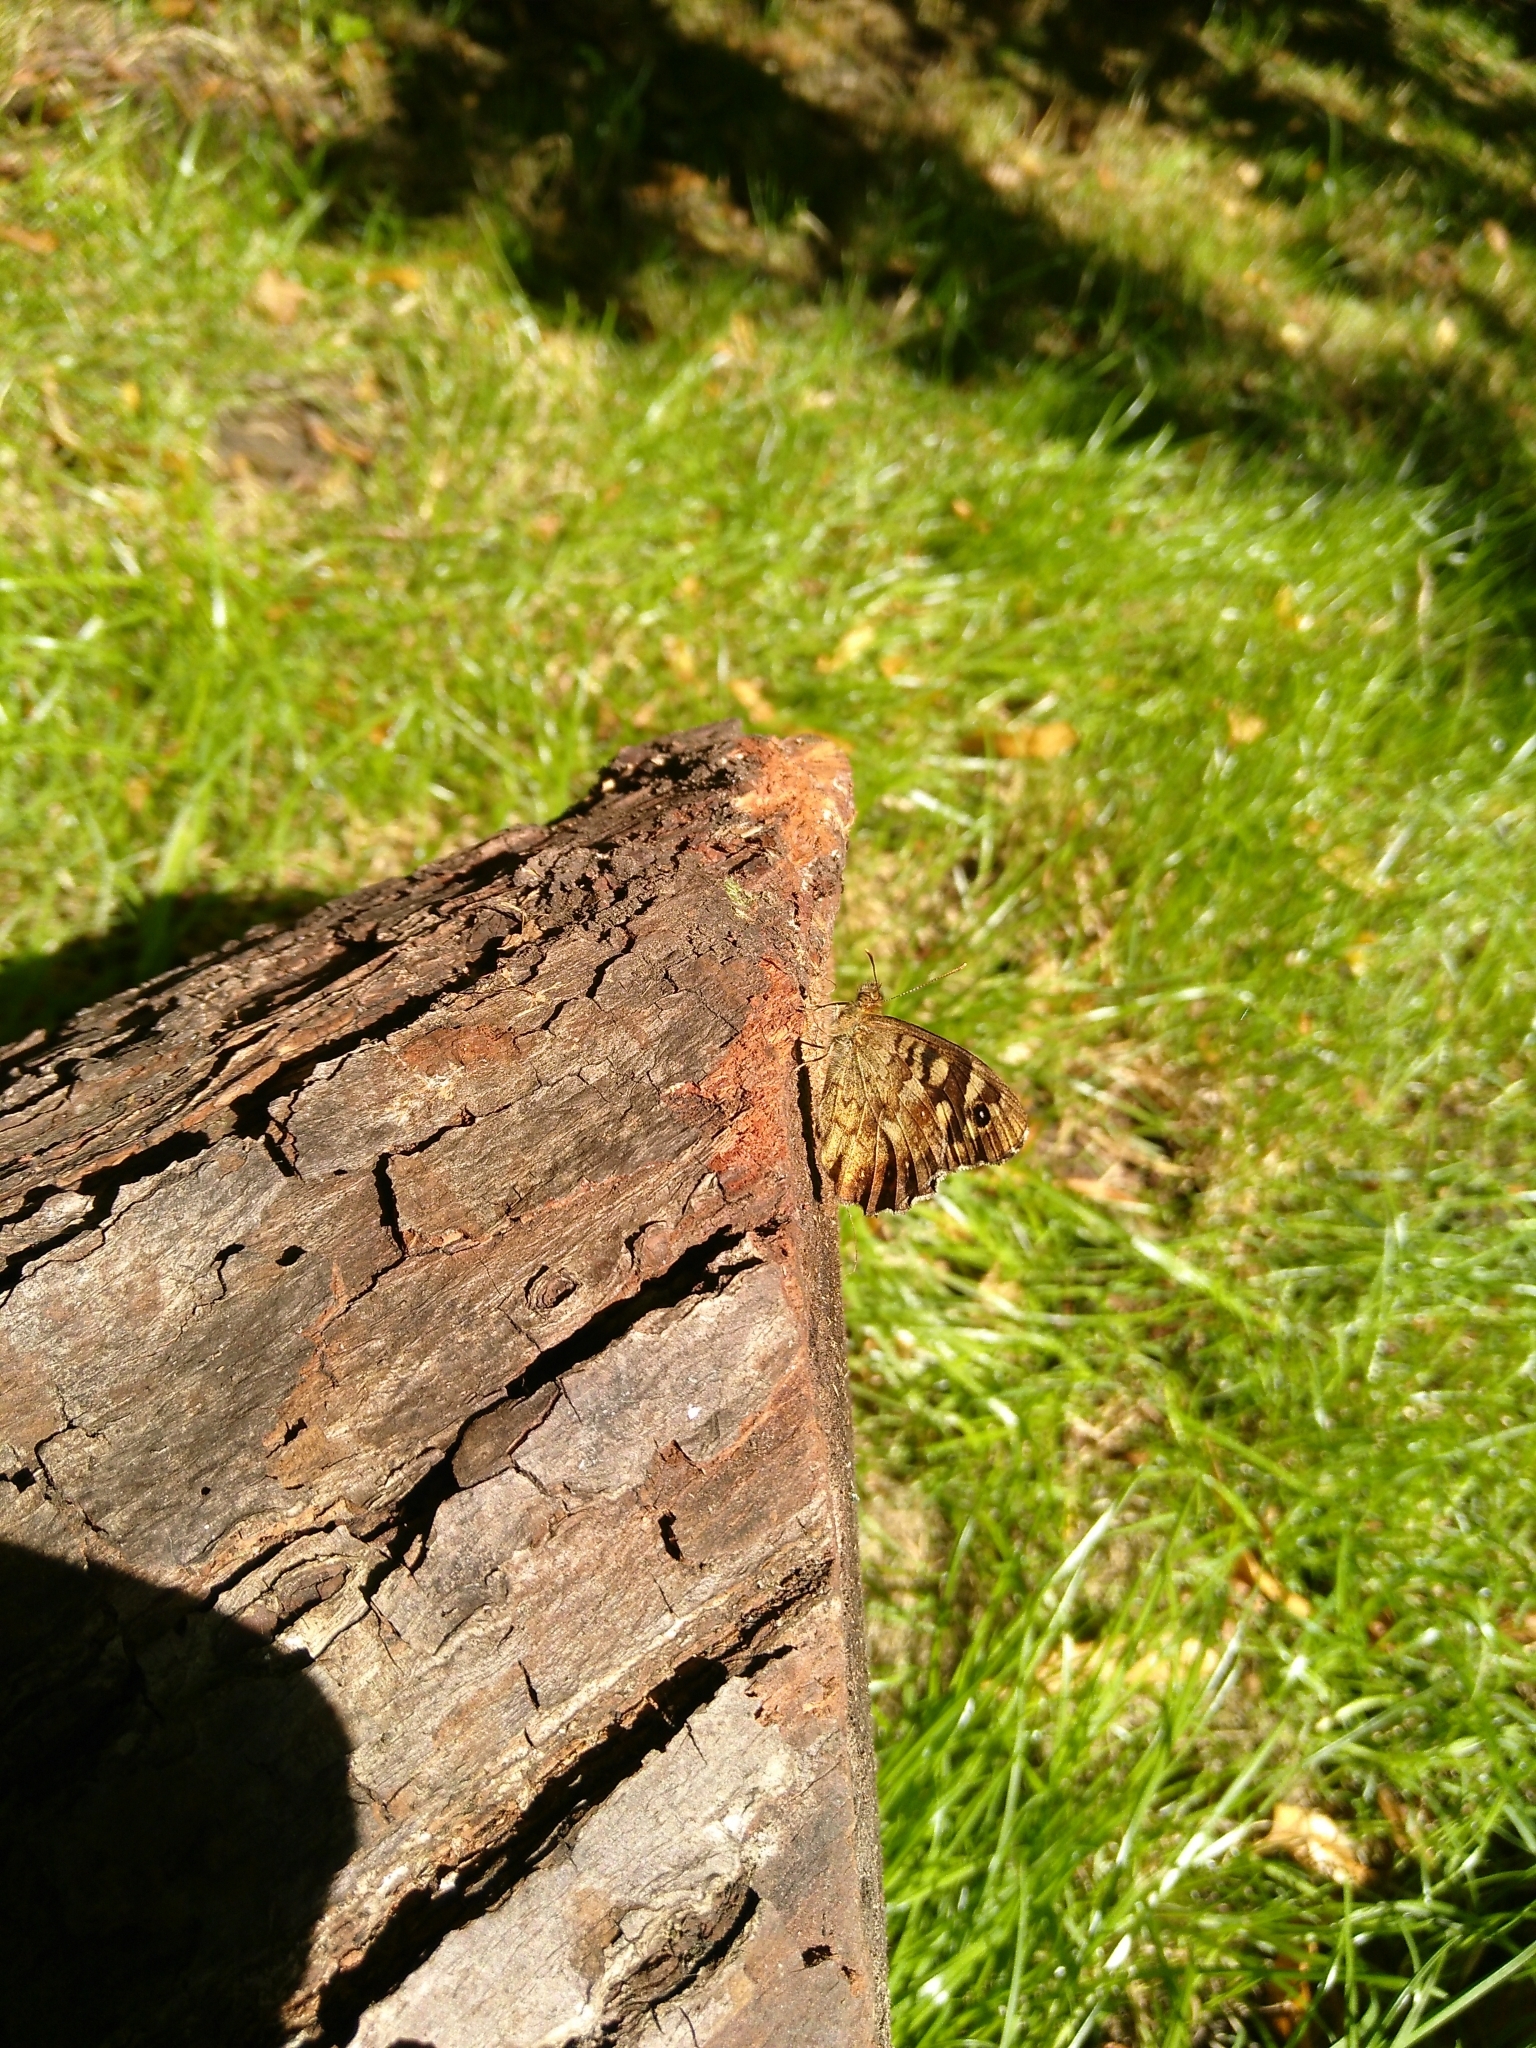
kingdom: Animalia
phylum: Arthropoda
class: Insecta
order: Lepidoptera
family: Nymphalidae
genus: Pararge
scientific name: Pararge aegeria
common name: Speckled wood
